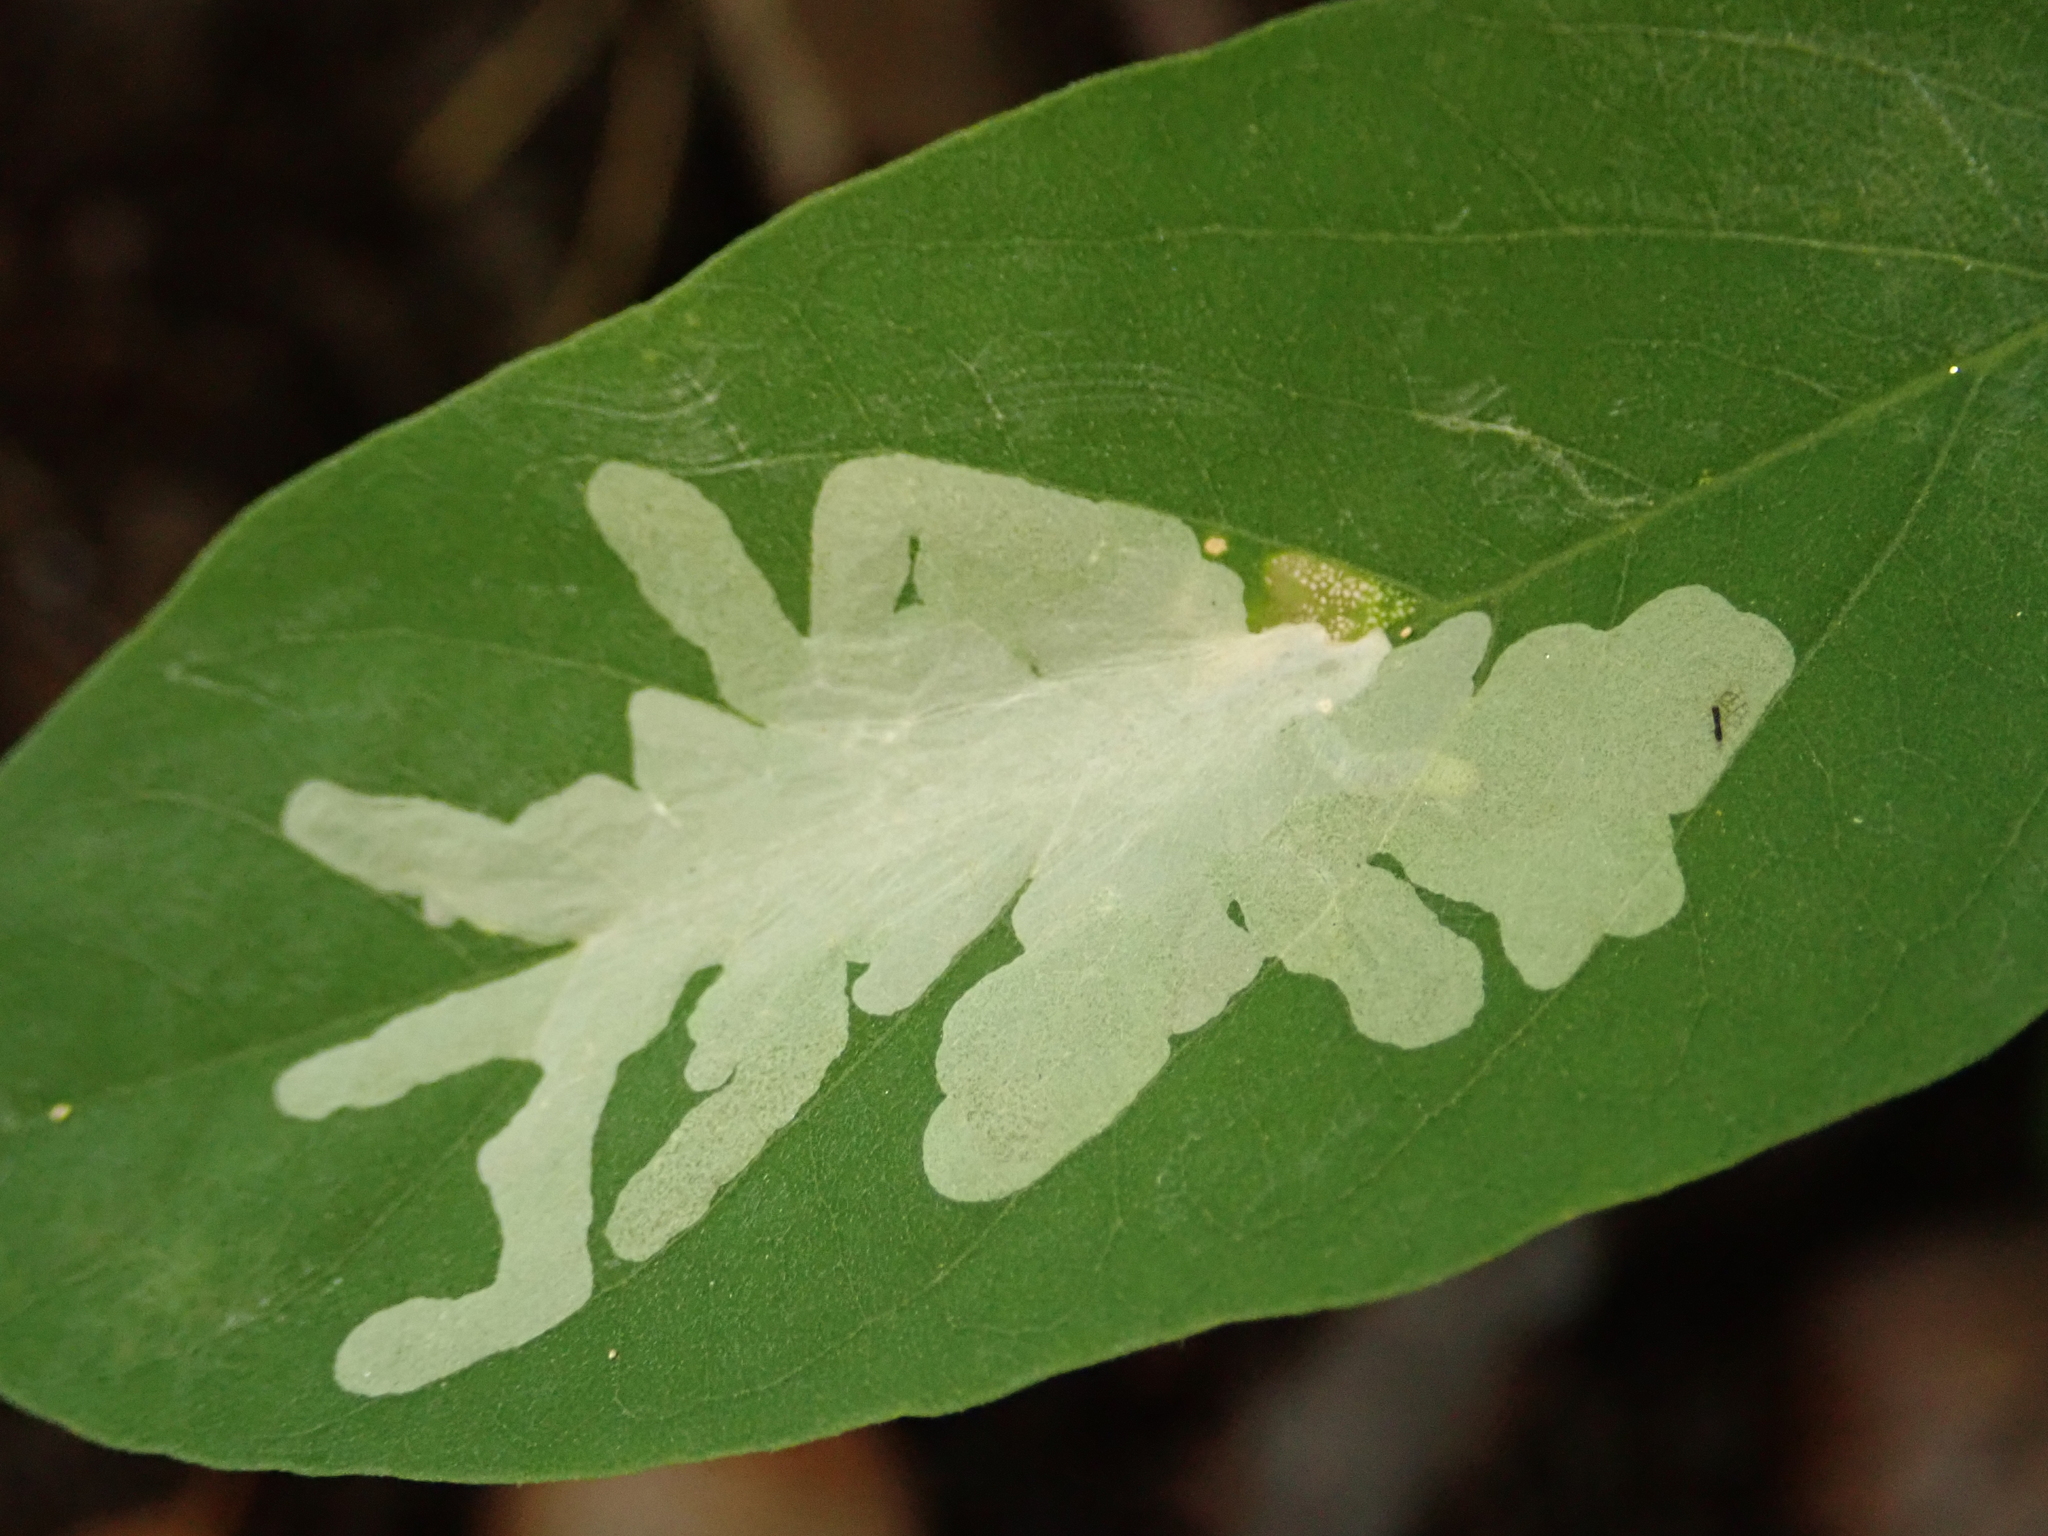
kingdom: Animalia
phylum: Arthropoda
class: Insecta
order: Lepidoptera
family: Gracillariidae
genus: Parectopa
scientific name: Parectopa robiniella
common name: Locust digitate leafminer
